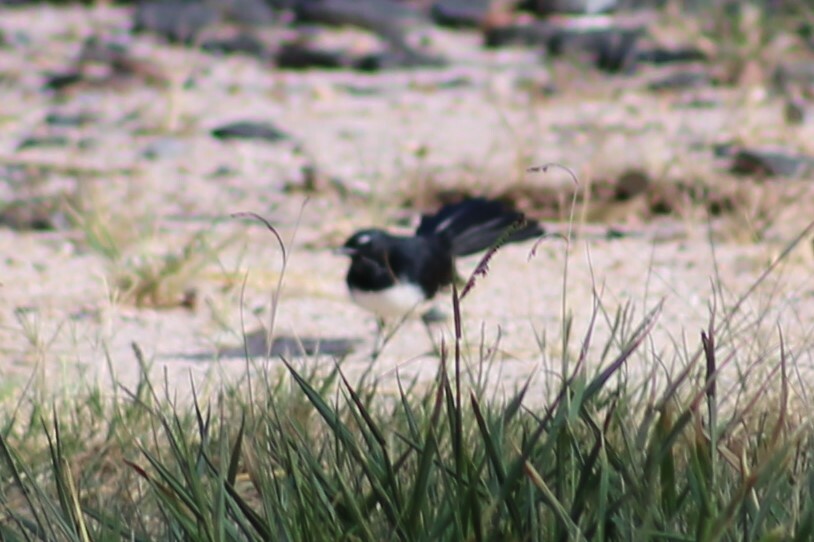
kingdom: Animalia
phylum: Chordata
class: Aves
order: Passeriformes
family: Rhipiduridae
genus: Rhipidura
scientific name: Rhipidura leucophrys
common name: Willie wagtail
